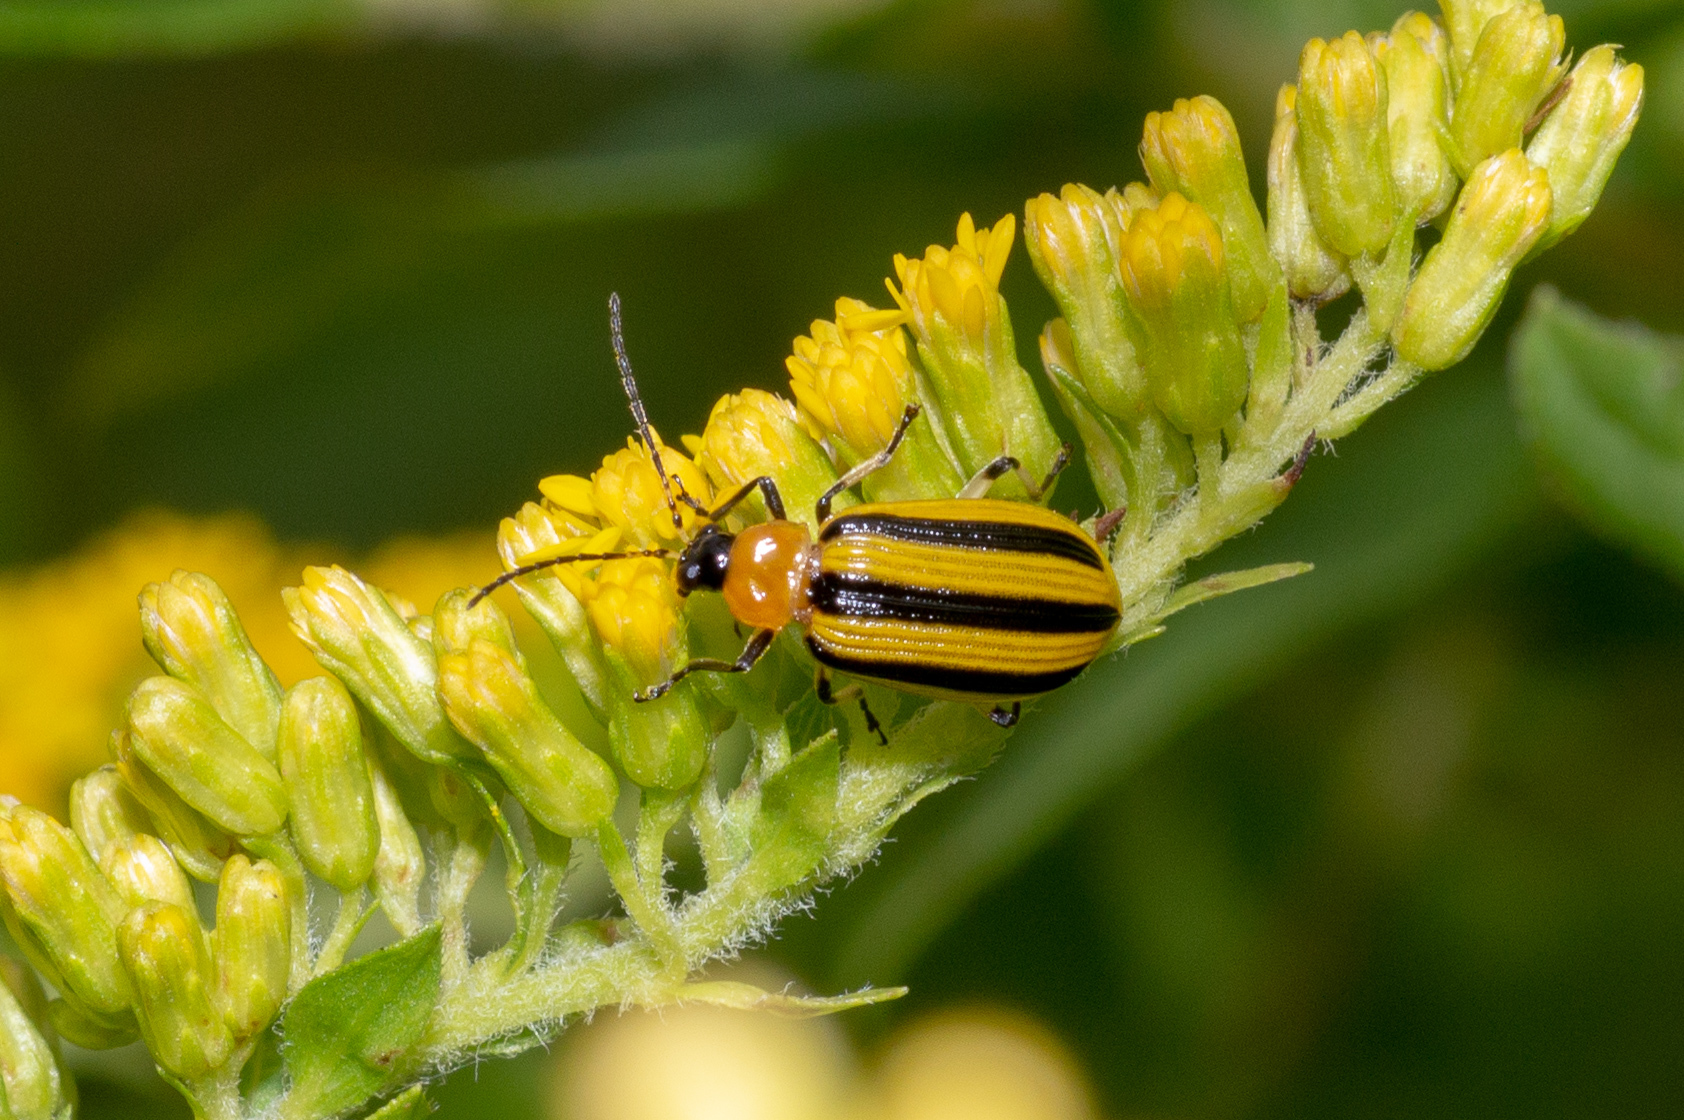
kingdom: Animalia
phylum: Arthropoda
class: Insecta
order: Coleoptera
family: Chrysomelidae
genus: Acalymma
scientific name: Acalymma vittatum
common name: Striped cucumber beetle
